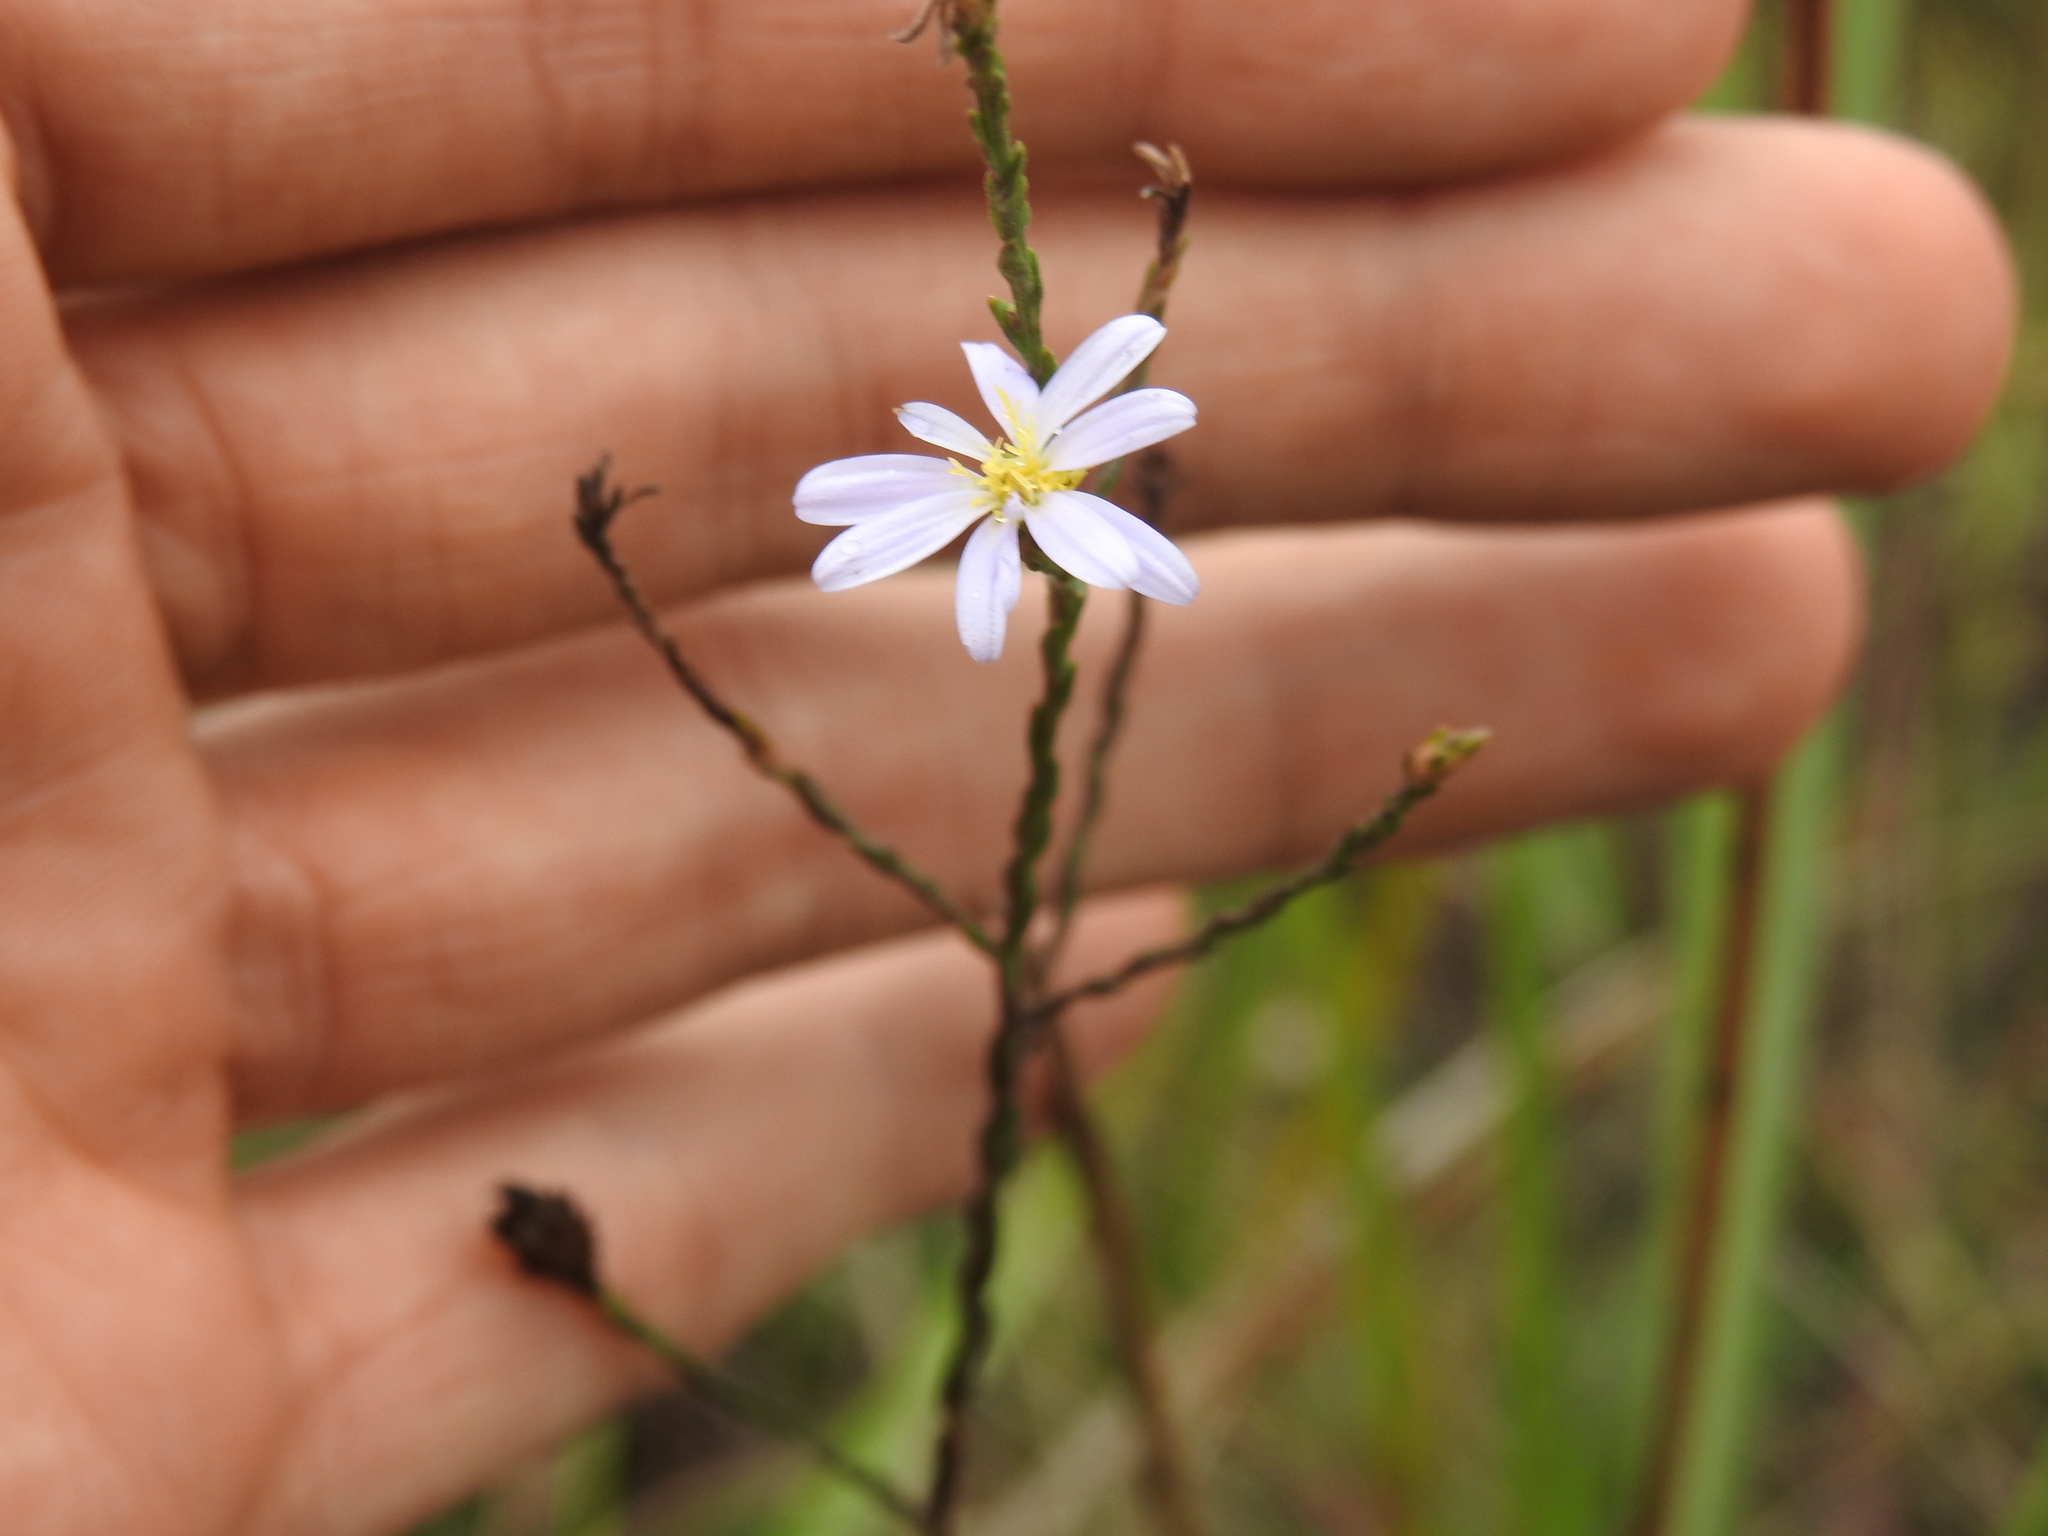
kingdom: Plantae
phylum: Tracheophyta
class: Magnoliopsida
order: Asterales
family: Asteraceae
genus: Symphyotrichum
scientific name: Symphyotrichum adnatum
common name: Scale-leaf aster
